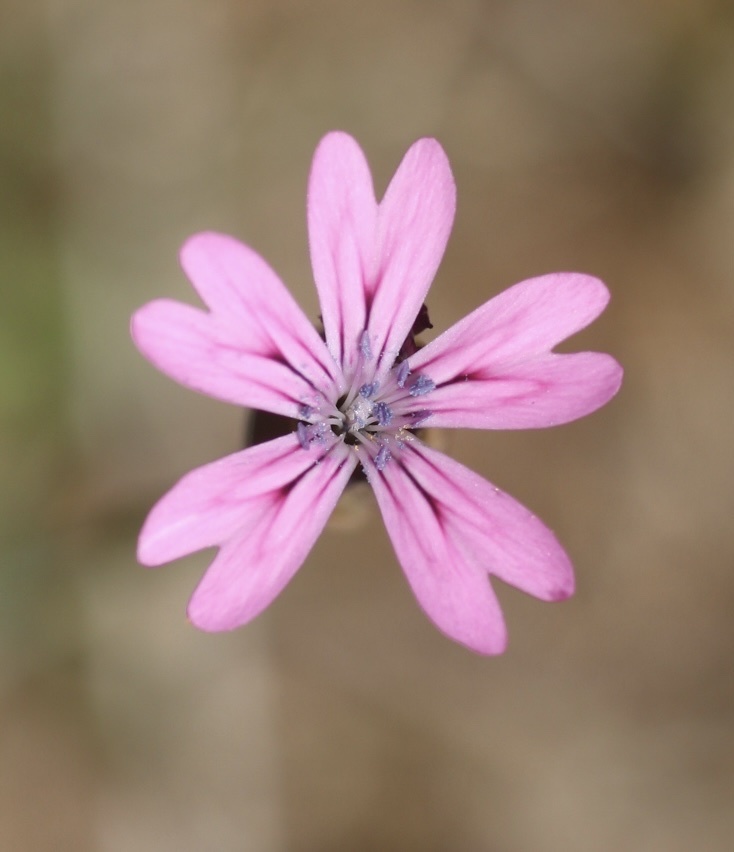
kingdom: Plantae
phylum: Tracheophyta
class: Magnoliopsida
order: Caryophyllales
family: Caryophyllaceae
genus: Petrorhagia
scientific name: Petrorhagia dubia
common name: Hairypink
